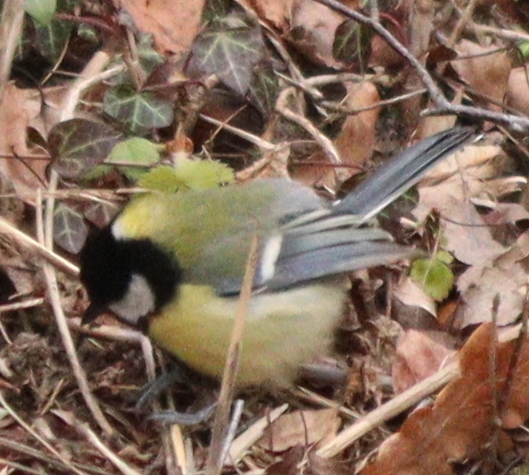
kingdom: Animalia
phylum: Chordata
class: Aves
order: Passeriformes
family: Paridae
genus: Parus
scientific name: Parus major
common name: Great tit
